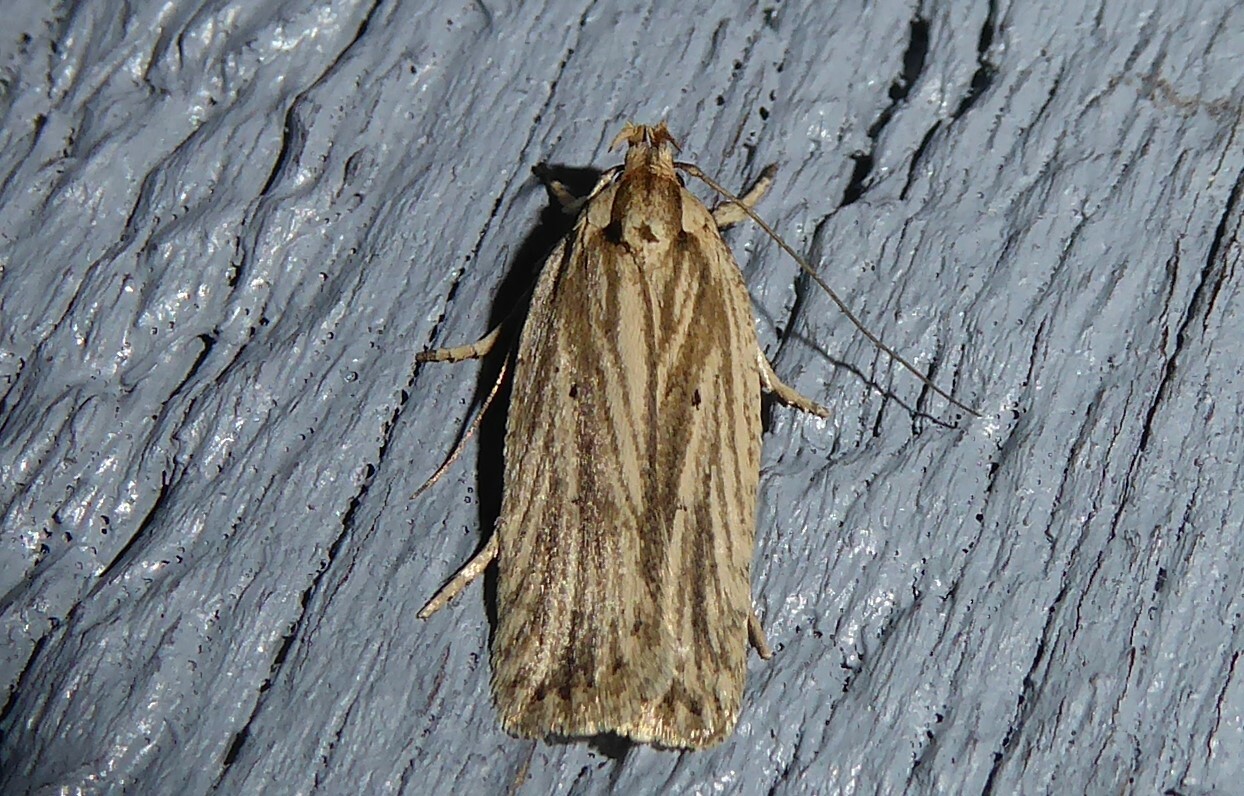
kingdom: Animalia
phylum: Arthropoda
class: Insecta
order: Lepidoptera
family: Depressariidae
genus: Agonopterix
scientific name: Agonopterix
